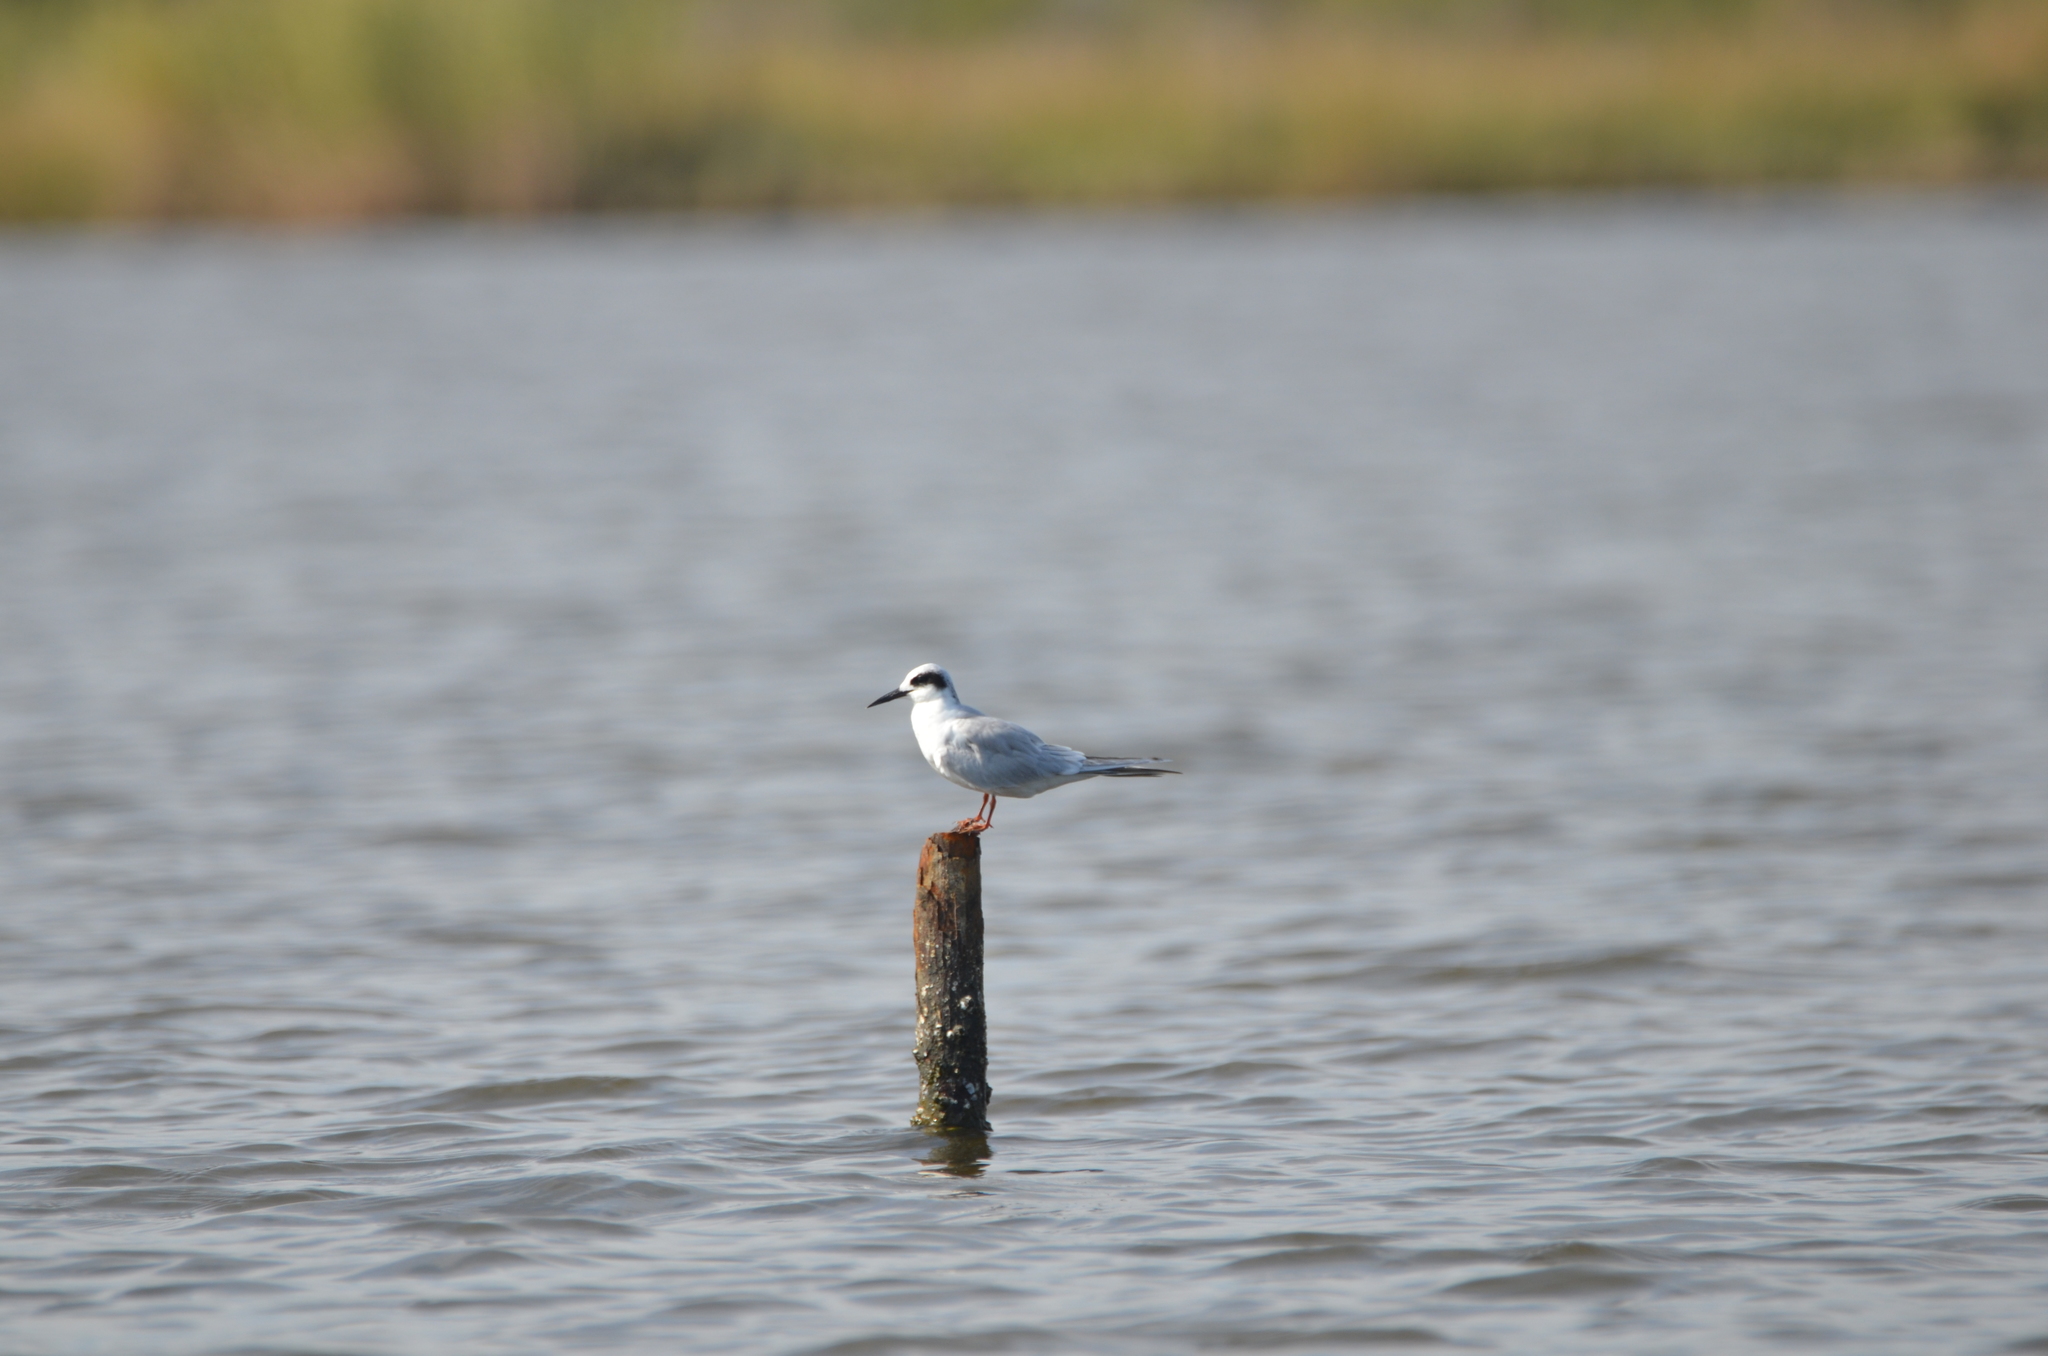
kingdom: Animalia
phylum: Chordata
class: Aves
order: Charadriiformes
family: Laridae
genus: Sterna
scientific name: Sterna forsteri
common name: Forster's tern
